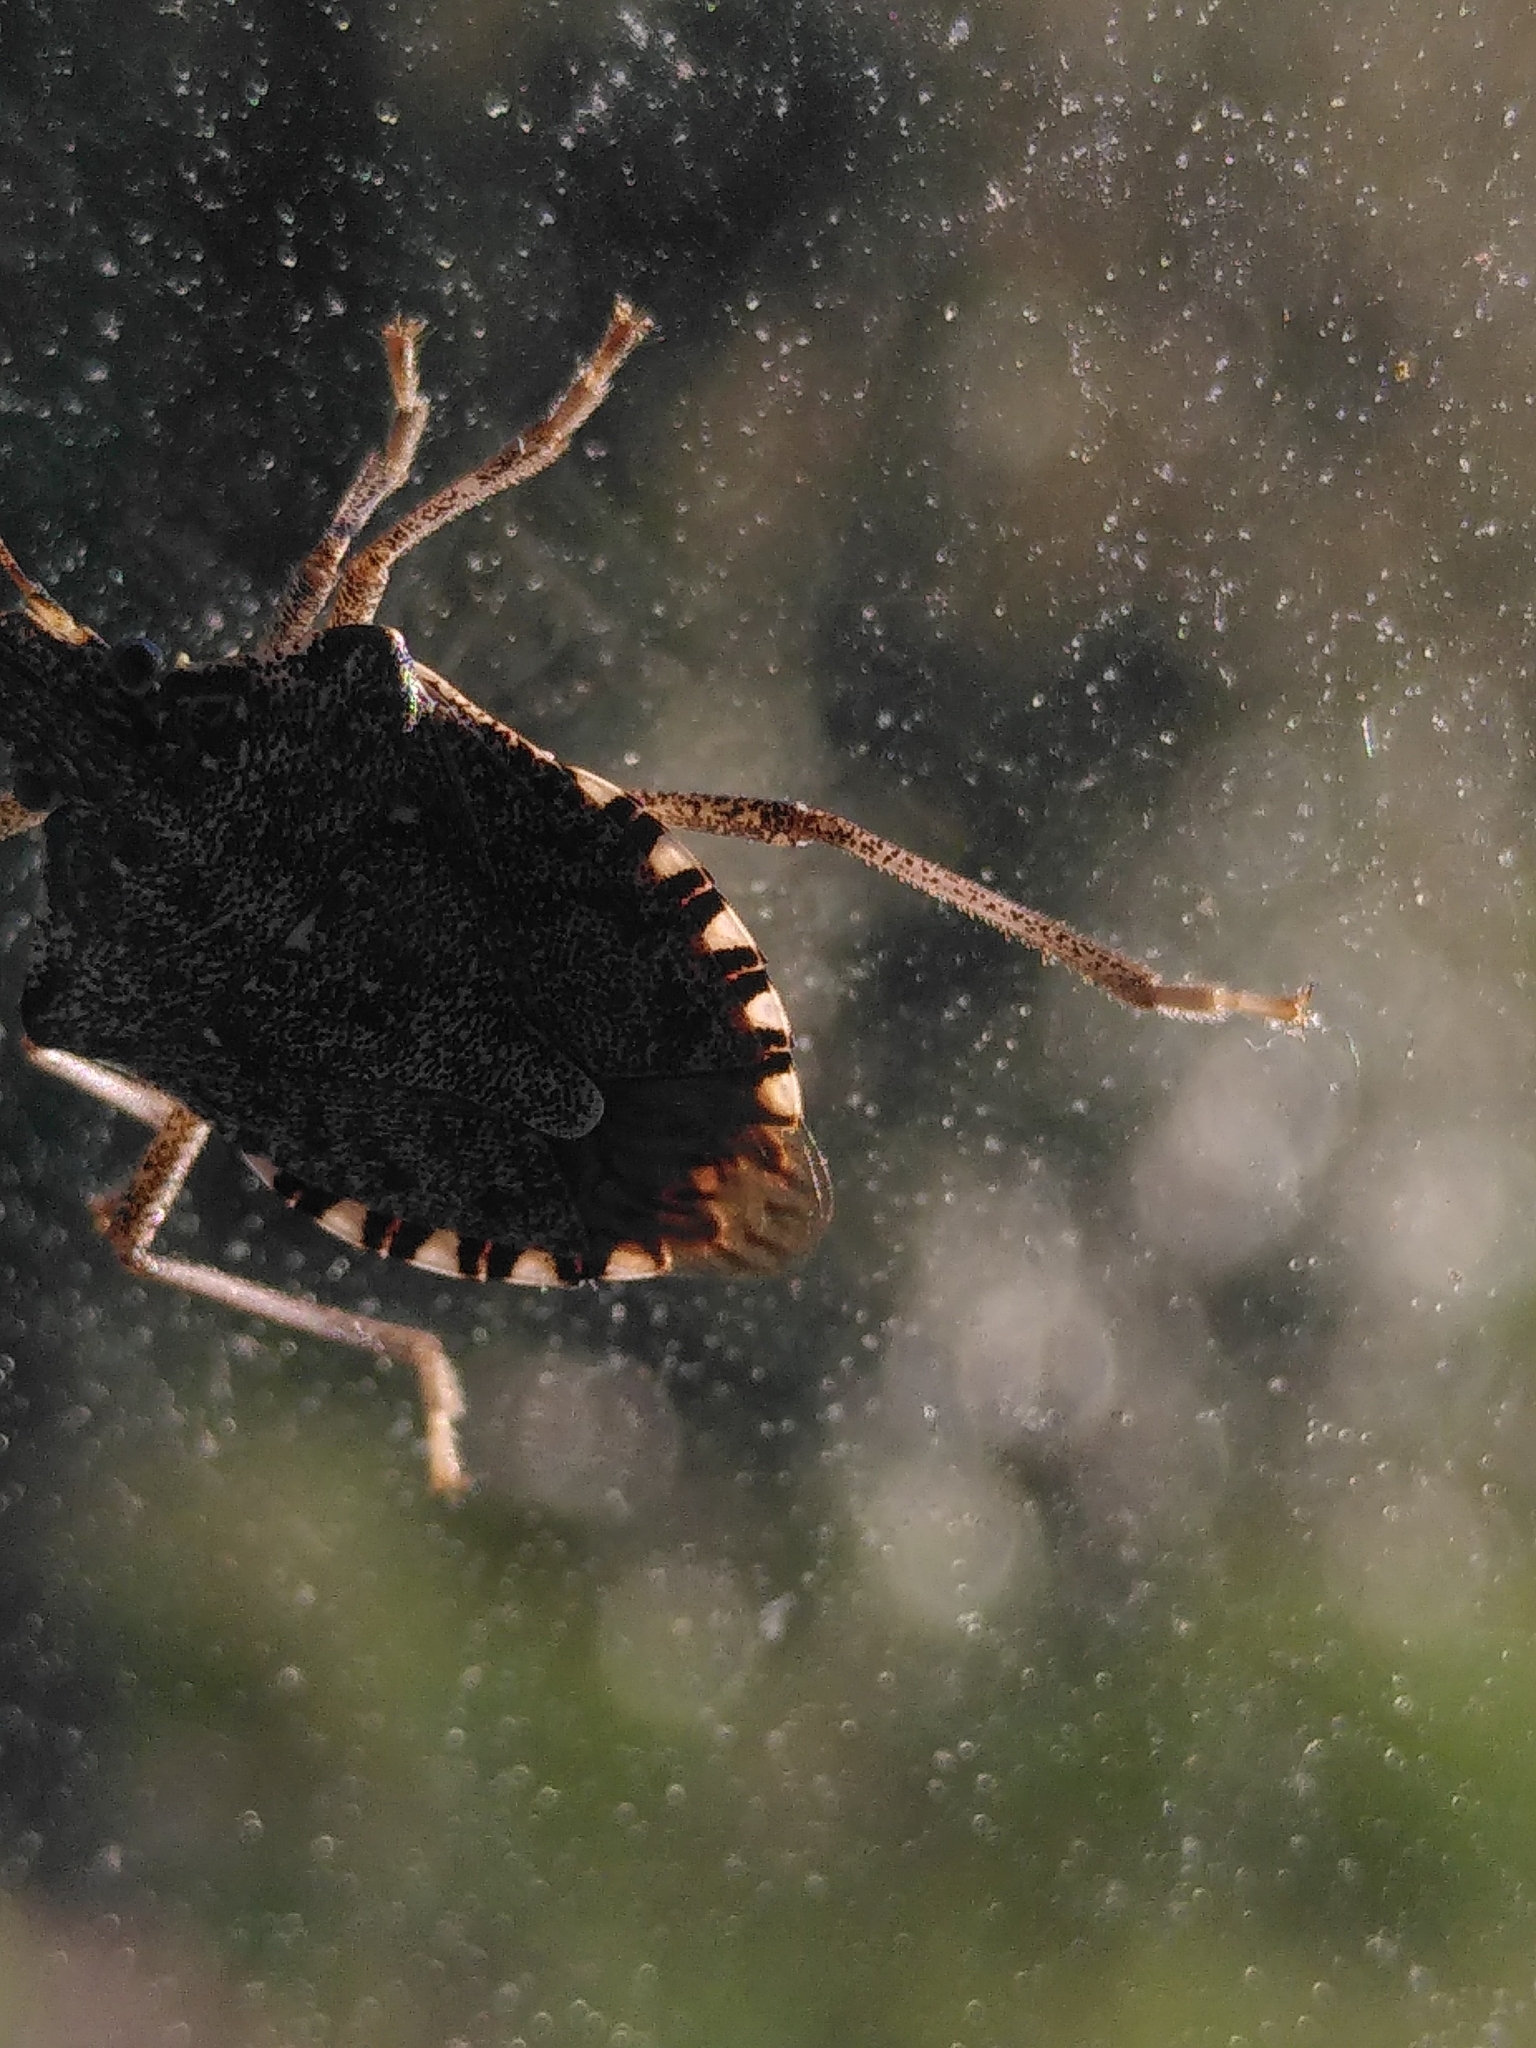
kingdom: Animalia
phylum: Arthropoda
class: Insecta
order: Hemiptera
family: Pentatomidae
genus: Halyomorpha
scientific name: Halyomorpha halys
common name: Brown marmorated stink bug
